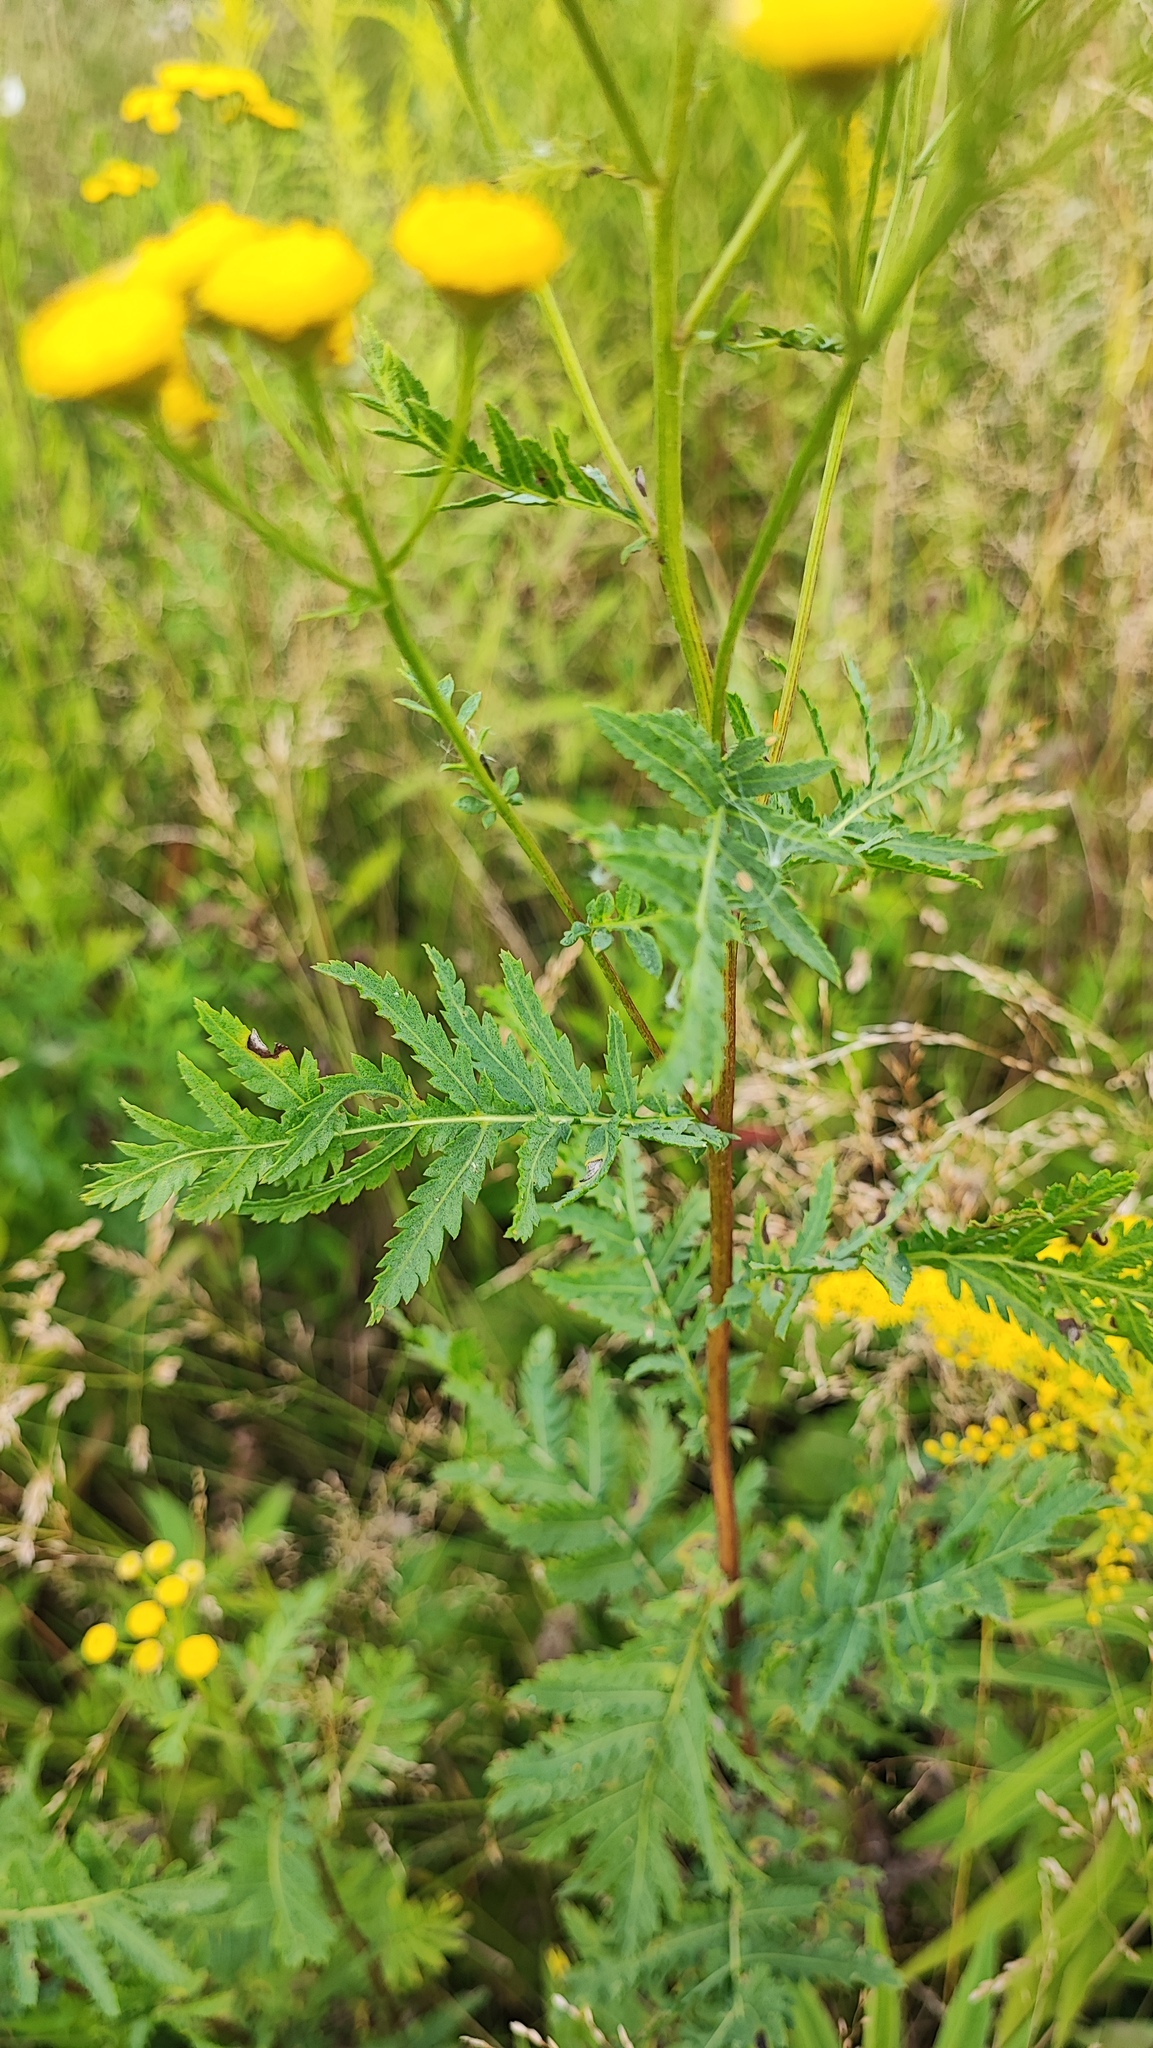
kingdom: Plantae
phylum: Tracheophyta
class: Magnoliopsida
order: Asterales
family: Asteraceae
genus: Tanacetum
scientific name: Tanacetum vulgare
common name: Common tansy
